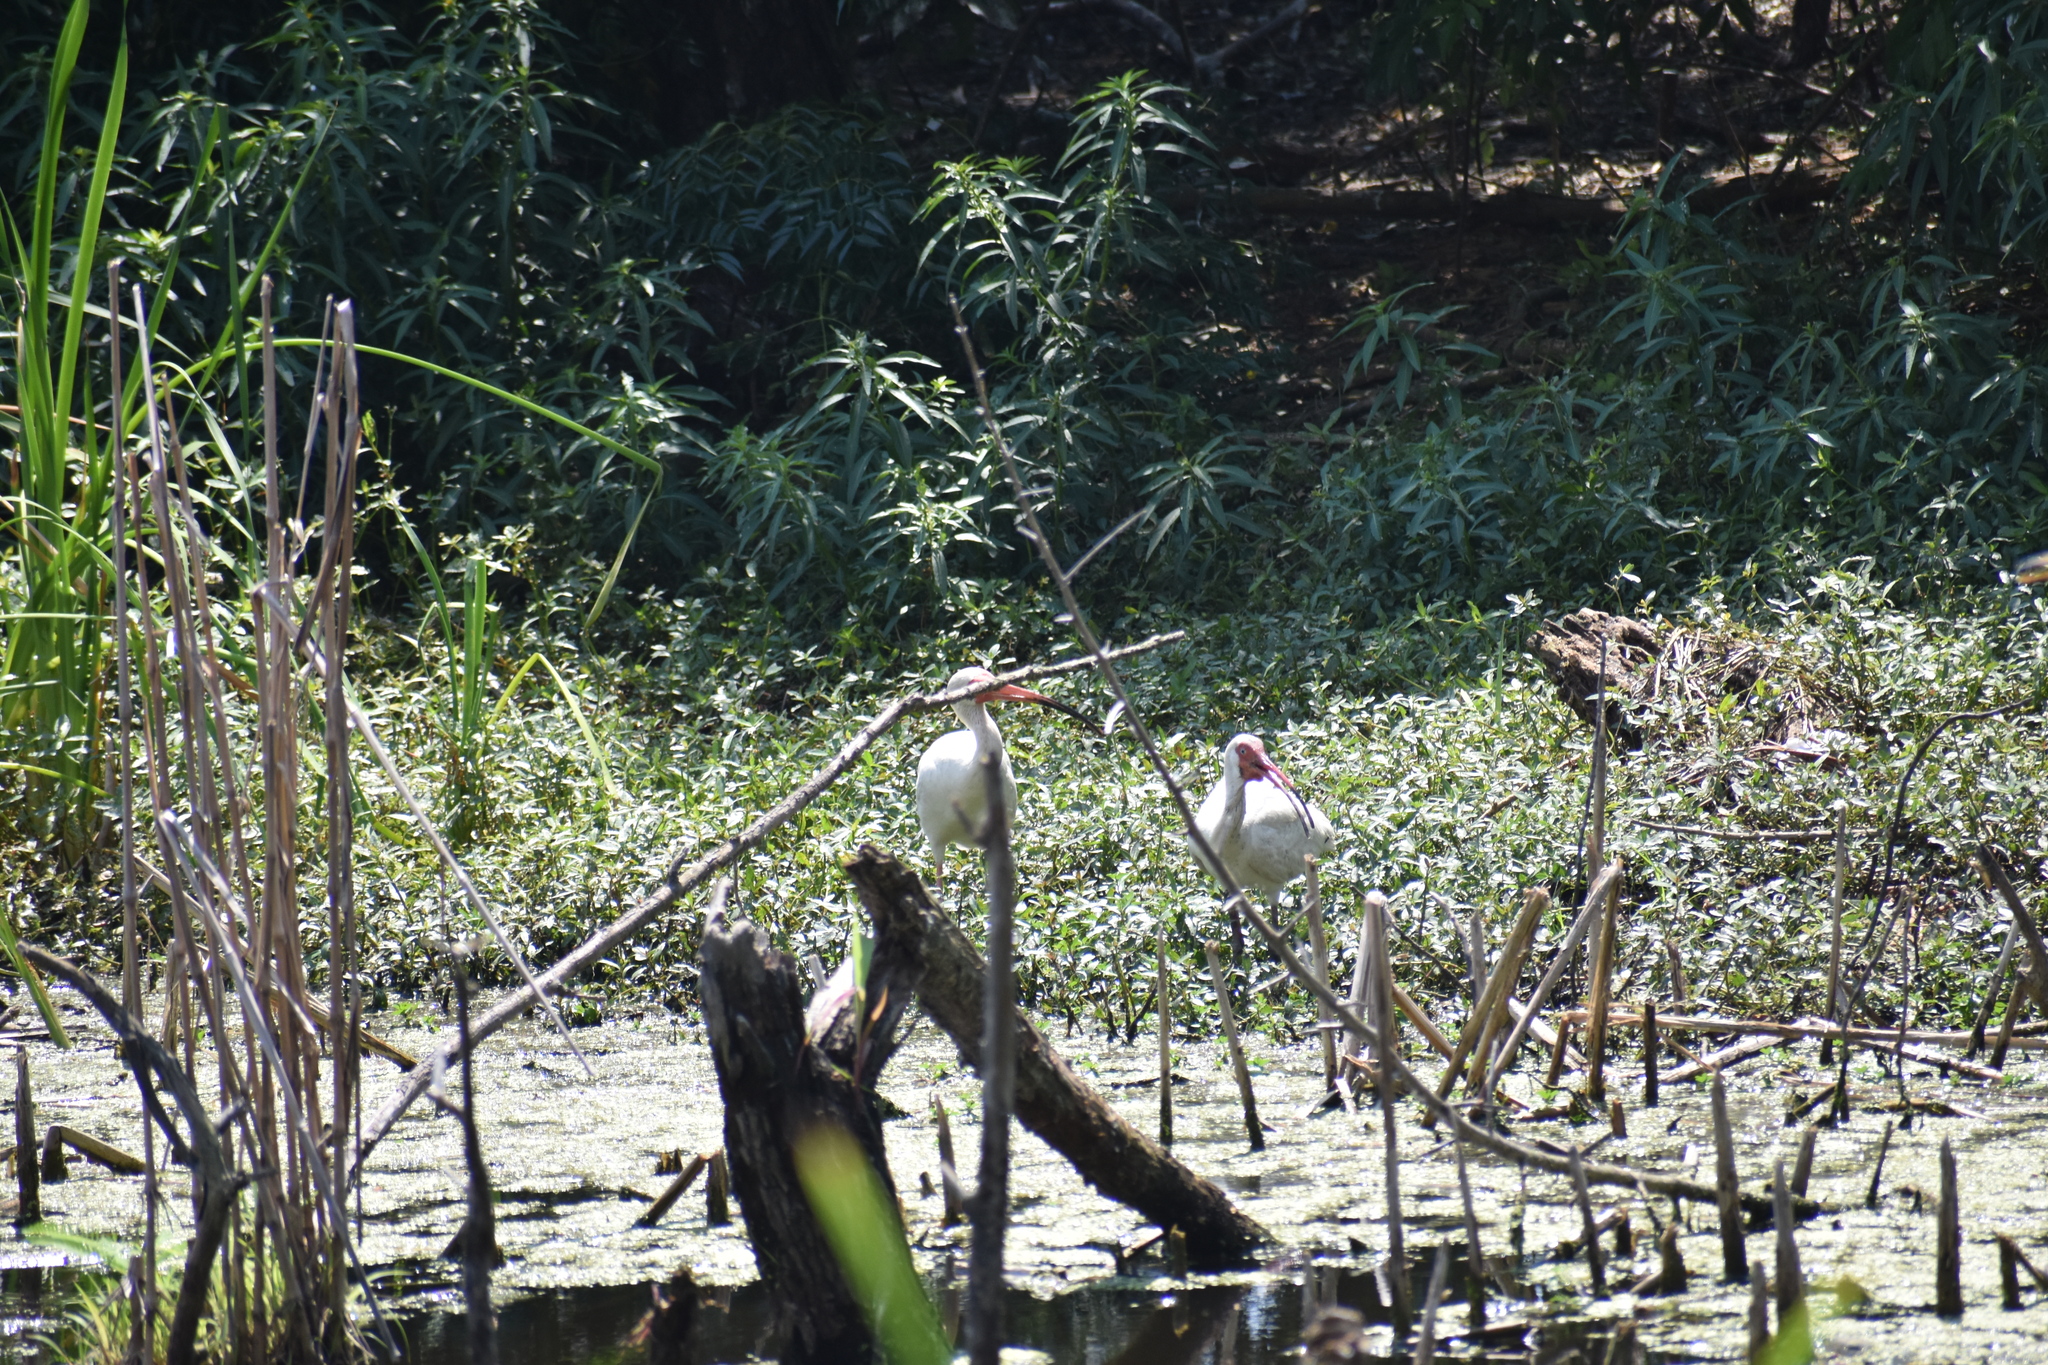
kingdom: Animalia
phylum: Chordata
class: Aves
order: Pelecaniformes
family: Threskiornithidae
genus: Eudocimus
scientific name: Eudocimus albus
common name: White ibis
